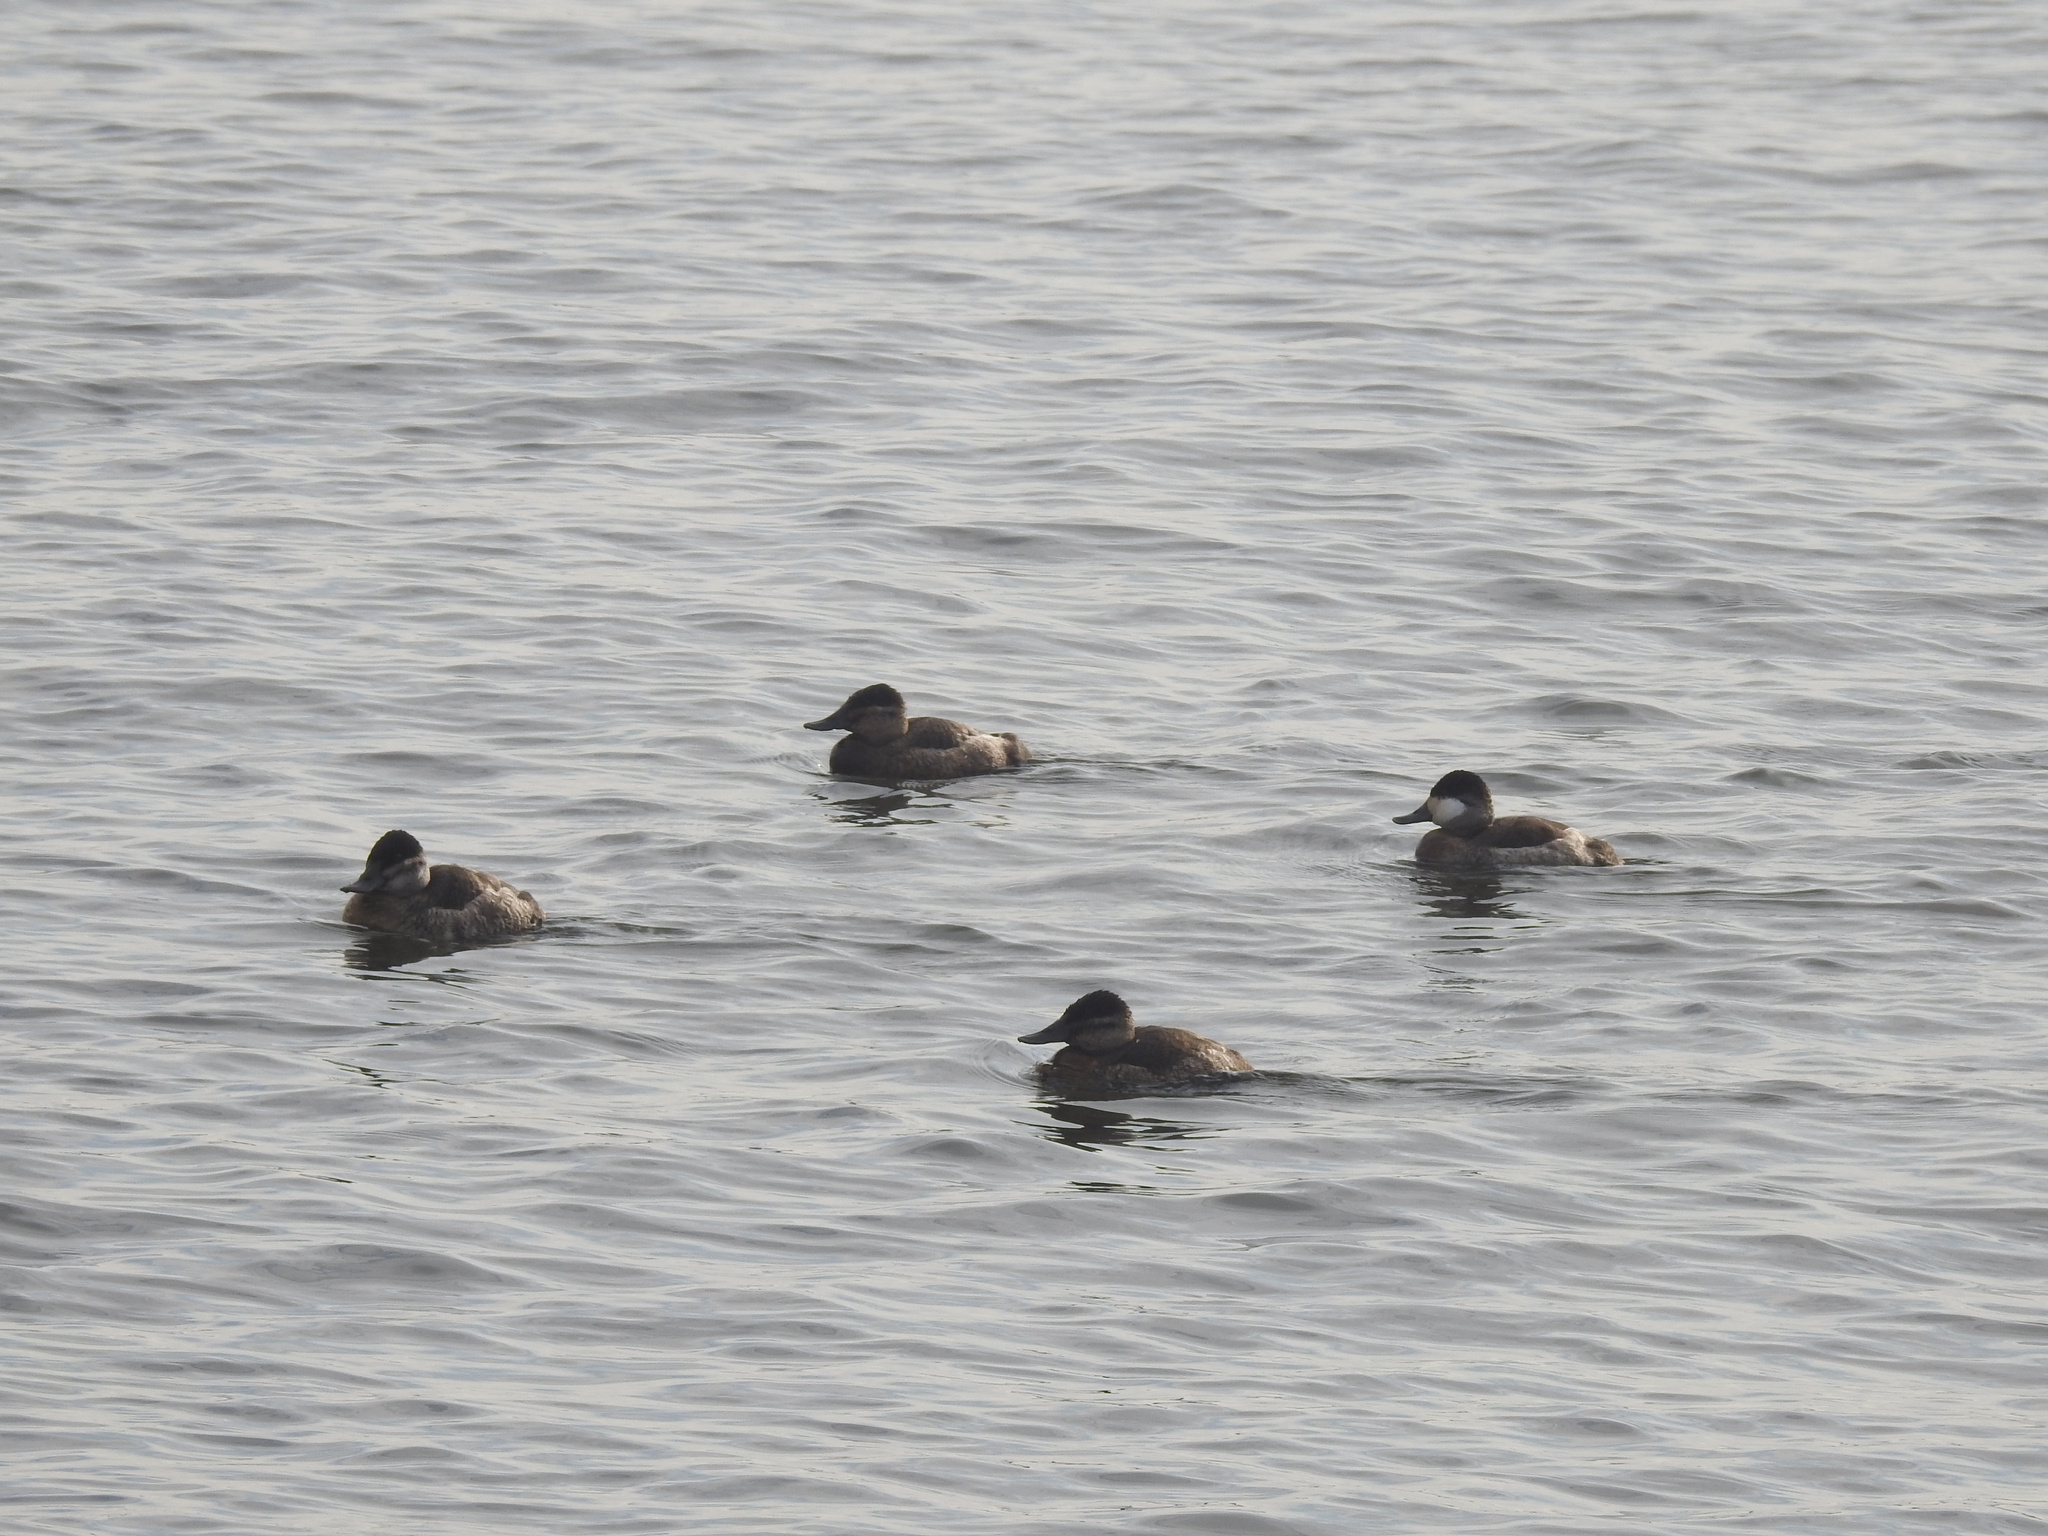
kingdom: Animalia
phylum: Chordata
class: Aves
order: Anseriformes
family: Anatidae
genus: Oxyura
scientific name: Oxyura jamaicensis
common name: Ruddy duck
